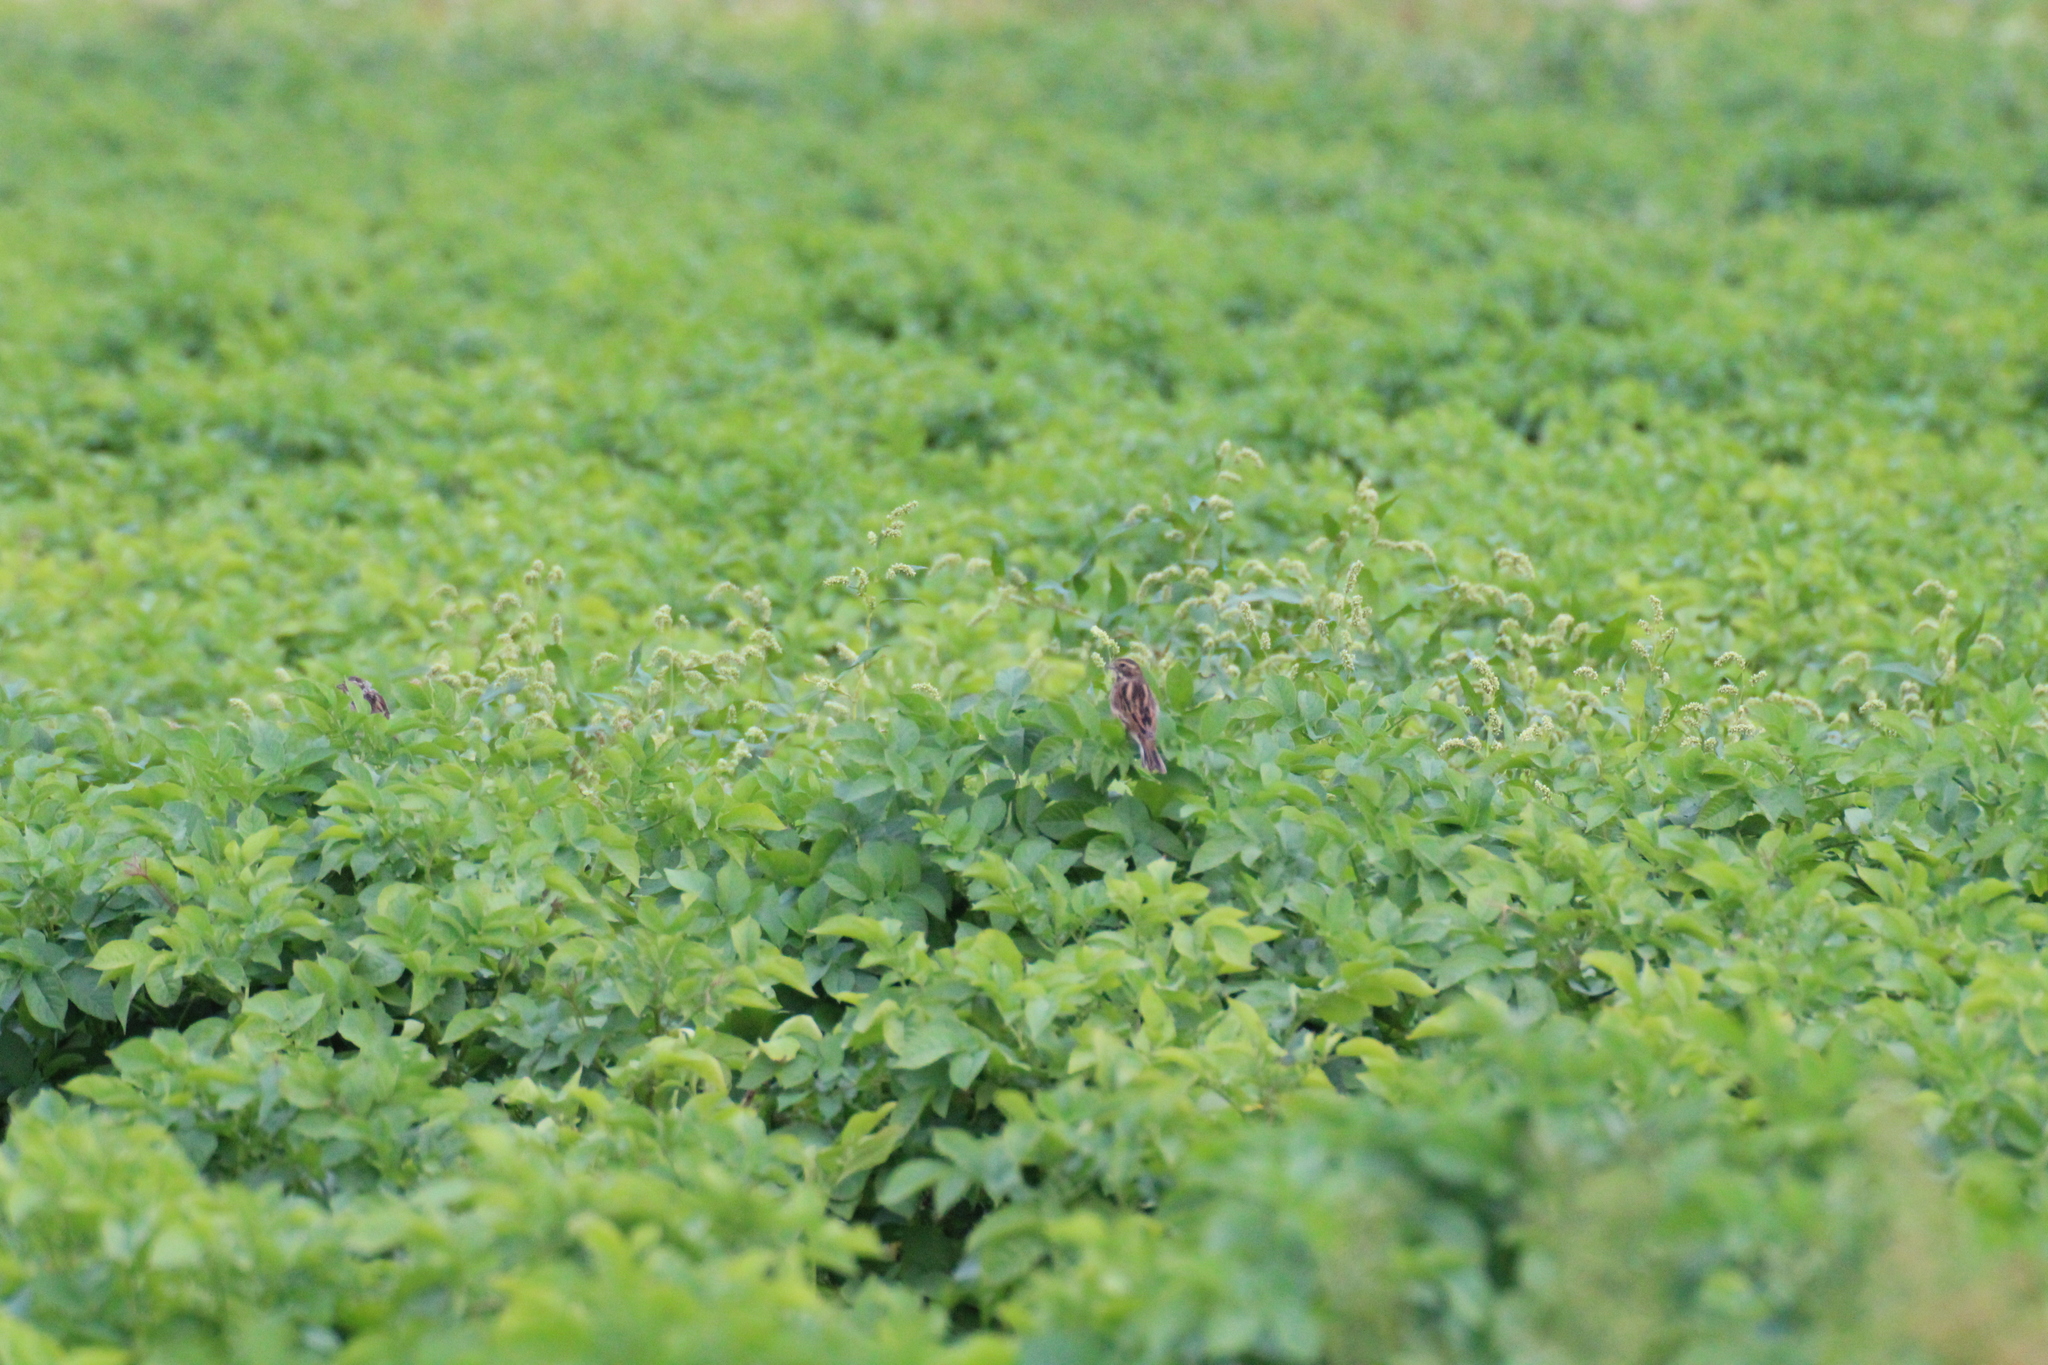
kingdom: Animalia
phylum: Chordata
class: Aves
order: Passeriformes
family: Emberizidae
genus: Emberiza
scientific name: Emberiza schoeniclus
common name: Reed bunting
